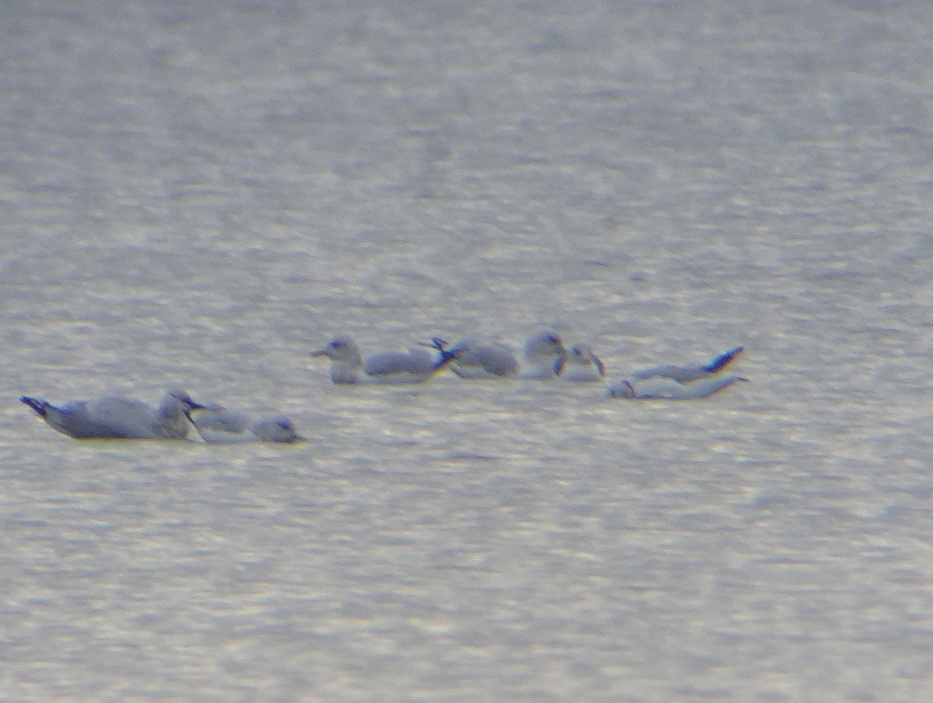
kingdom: Animalia
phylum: Chordata
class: Aves
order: Charadriiformes
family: Laridae
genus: Larus
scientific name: Larus fuscus
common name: Lesser black-backed gull
